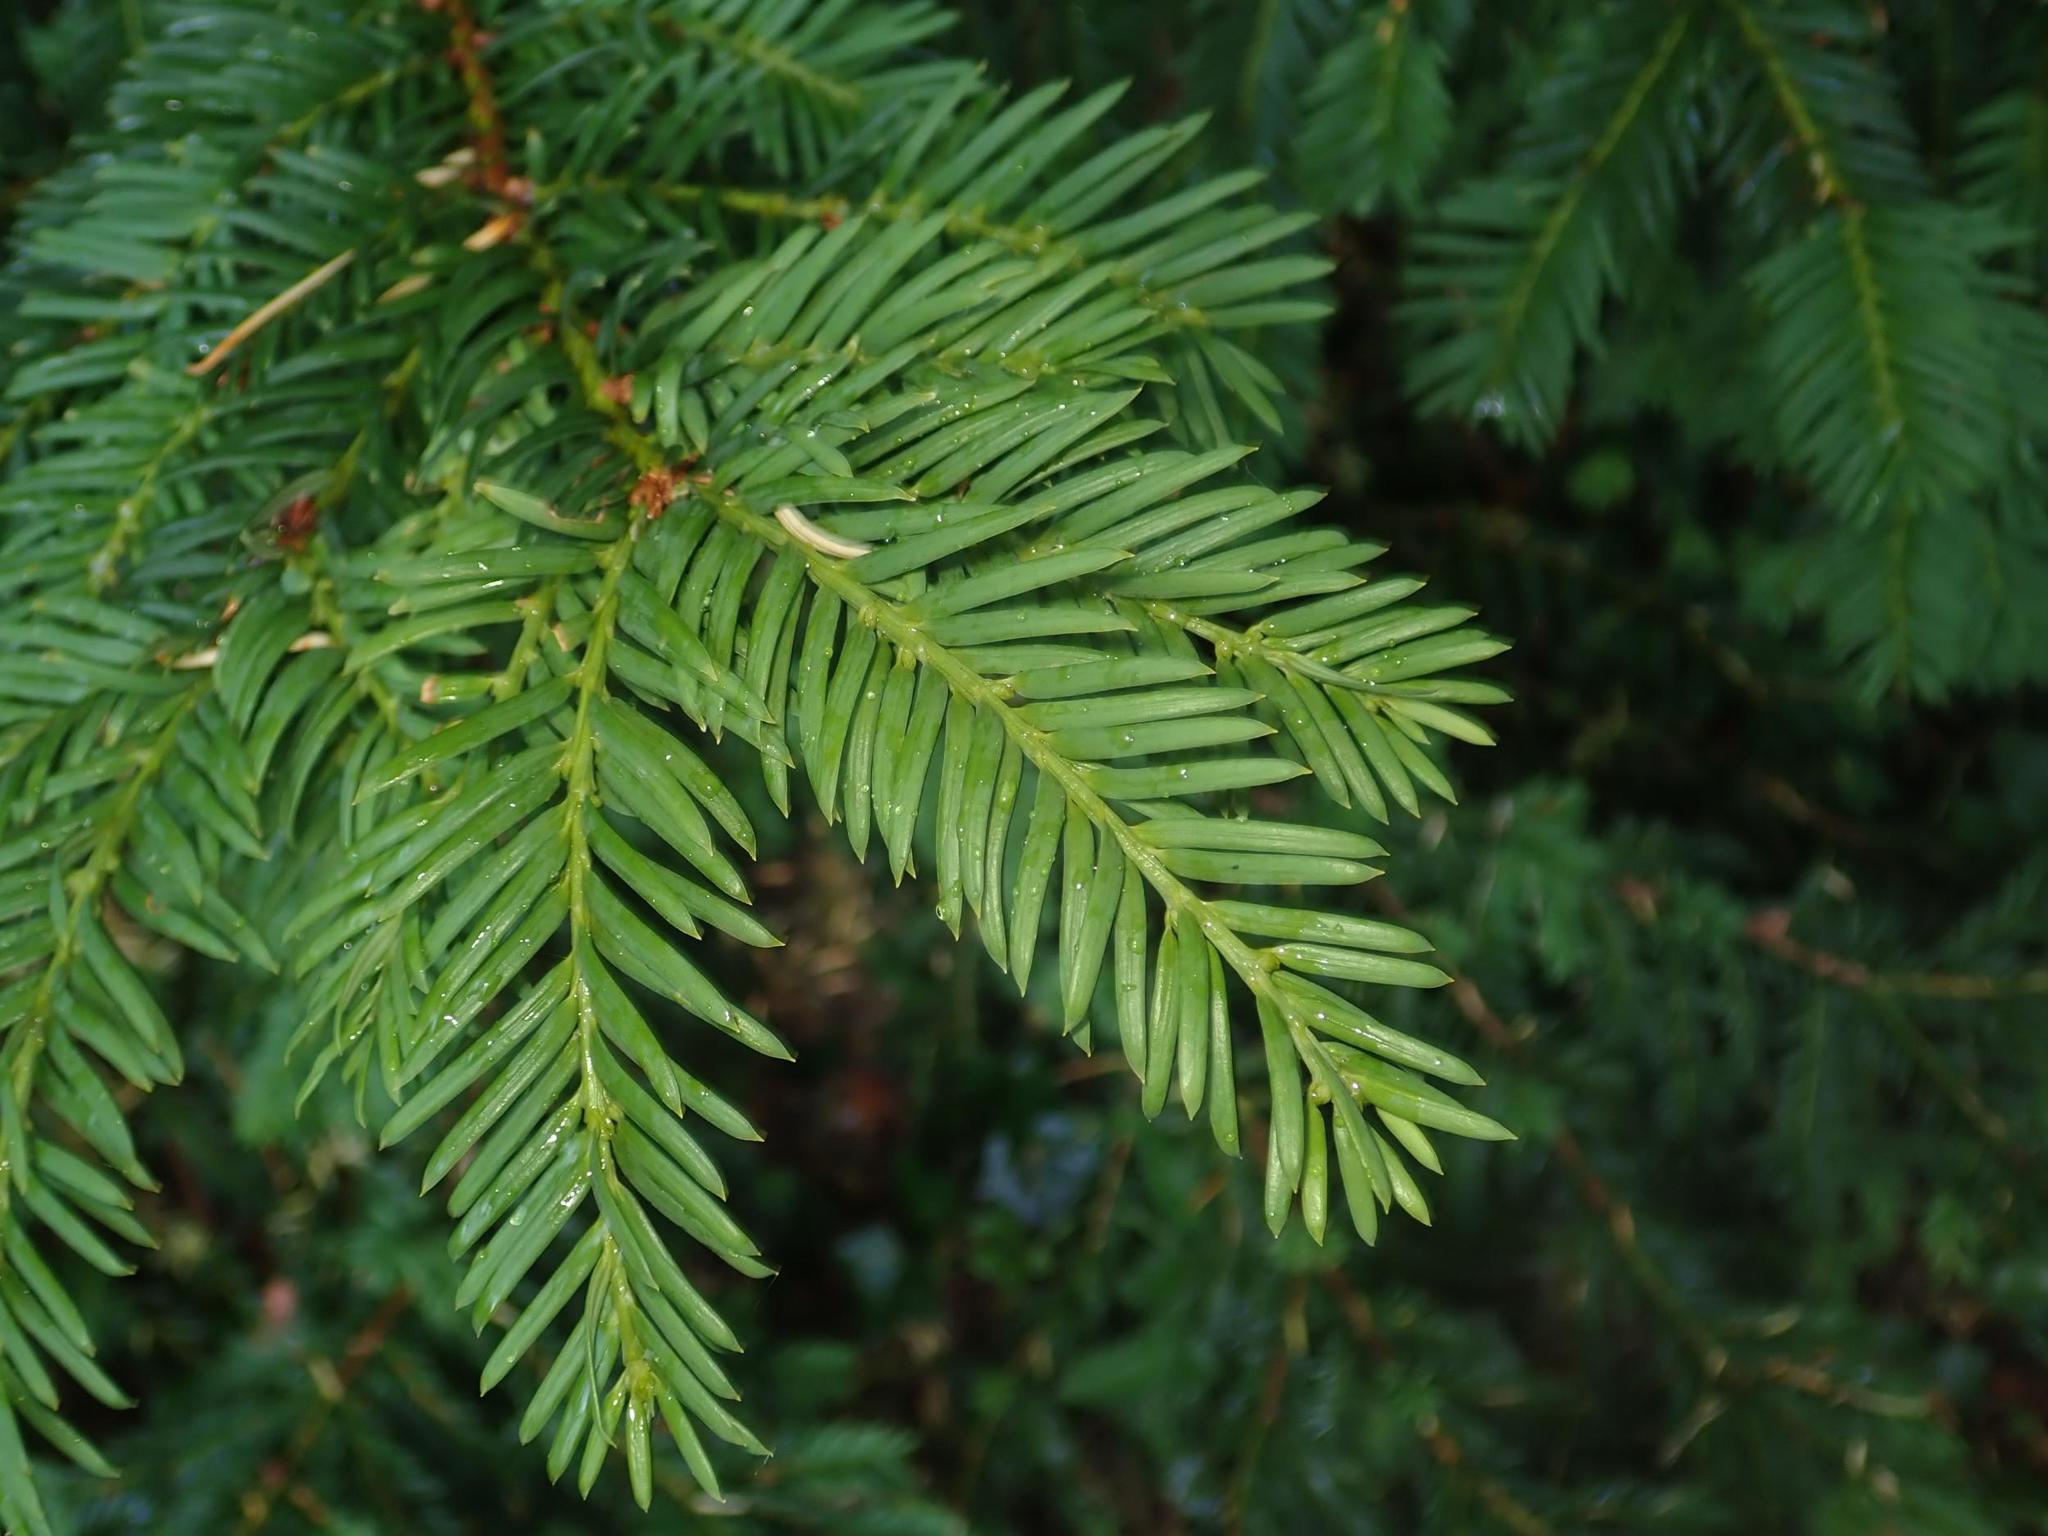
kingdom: Plantae
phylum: Tracheophyta
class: Pinopsida
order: Pinales
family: Taxaceae
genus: Taxus
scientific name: Taxus baccata
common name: Yew
